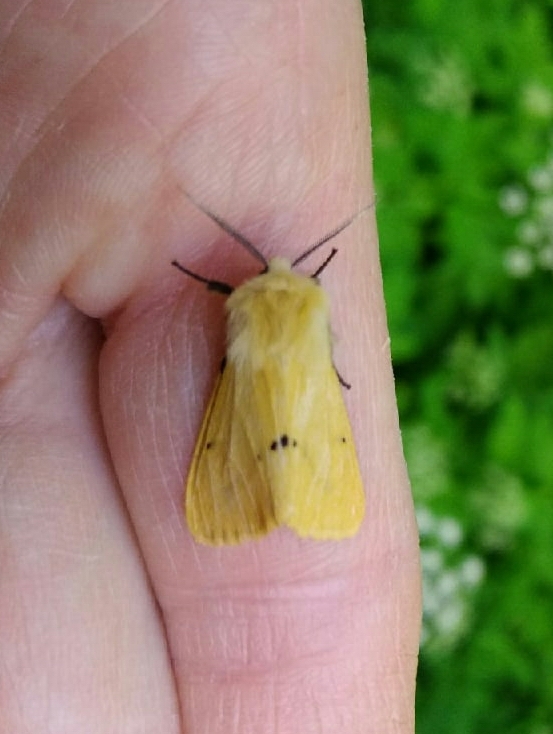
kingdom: Animalia
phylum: Arthropoda
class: Insecta
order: Lepidoptera
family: Erebidae
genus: Spilarctia
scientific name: Spilarctia lutea
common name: Buff ermine
